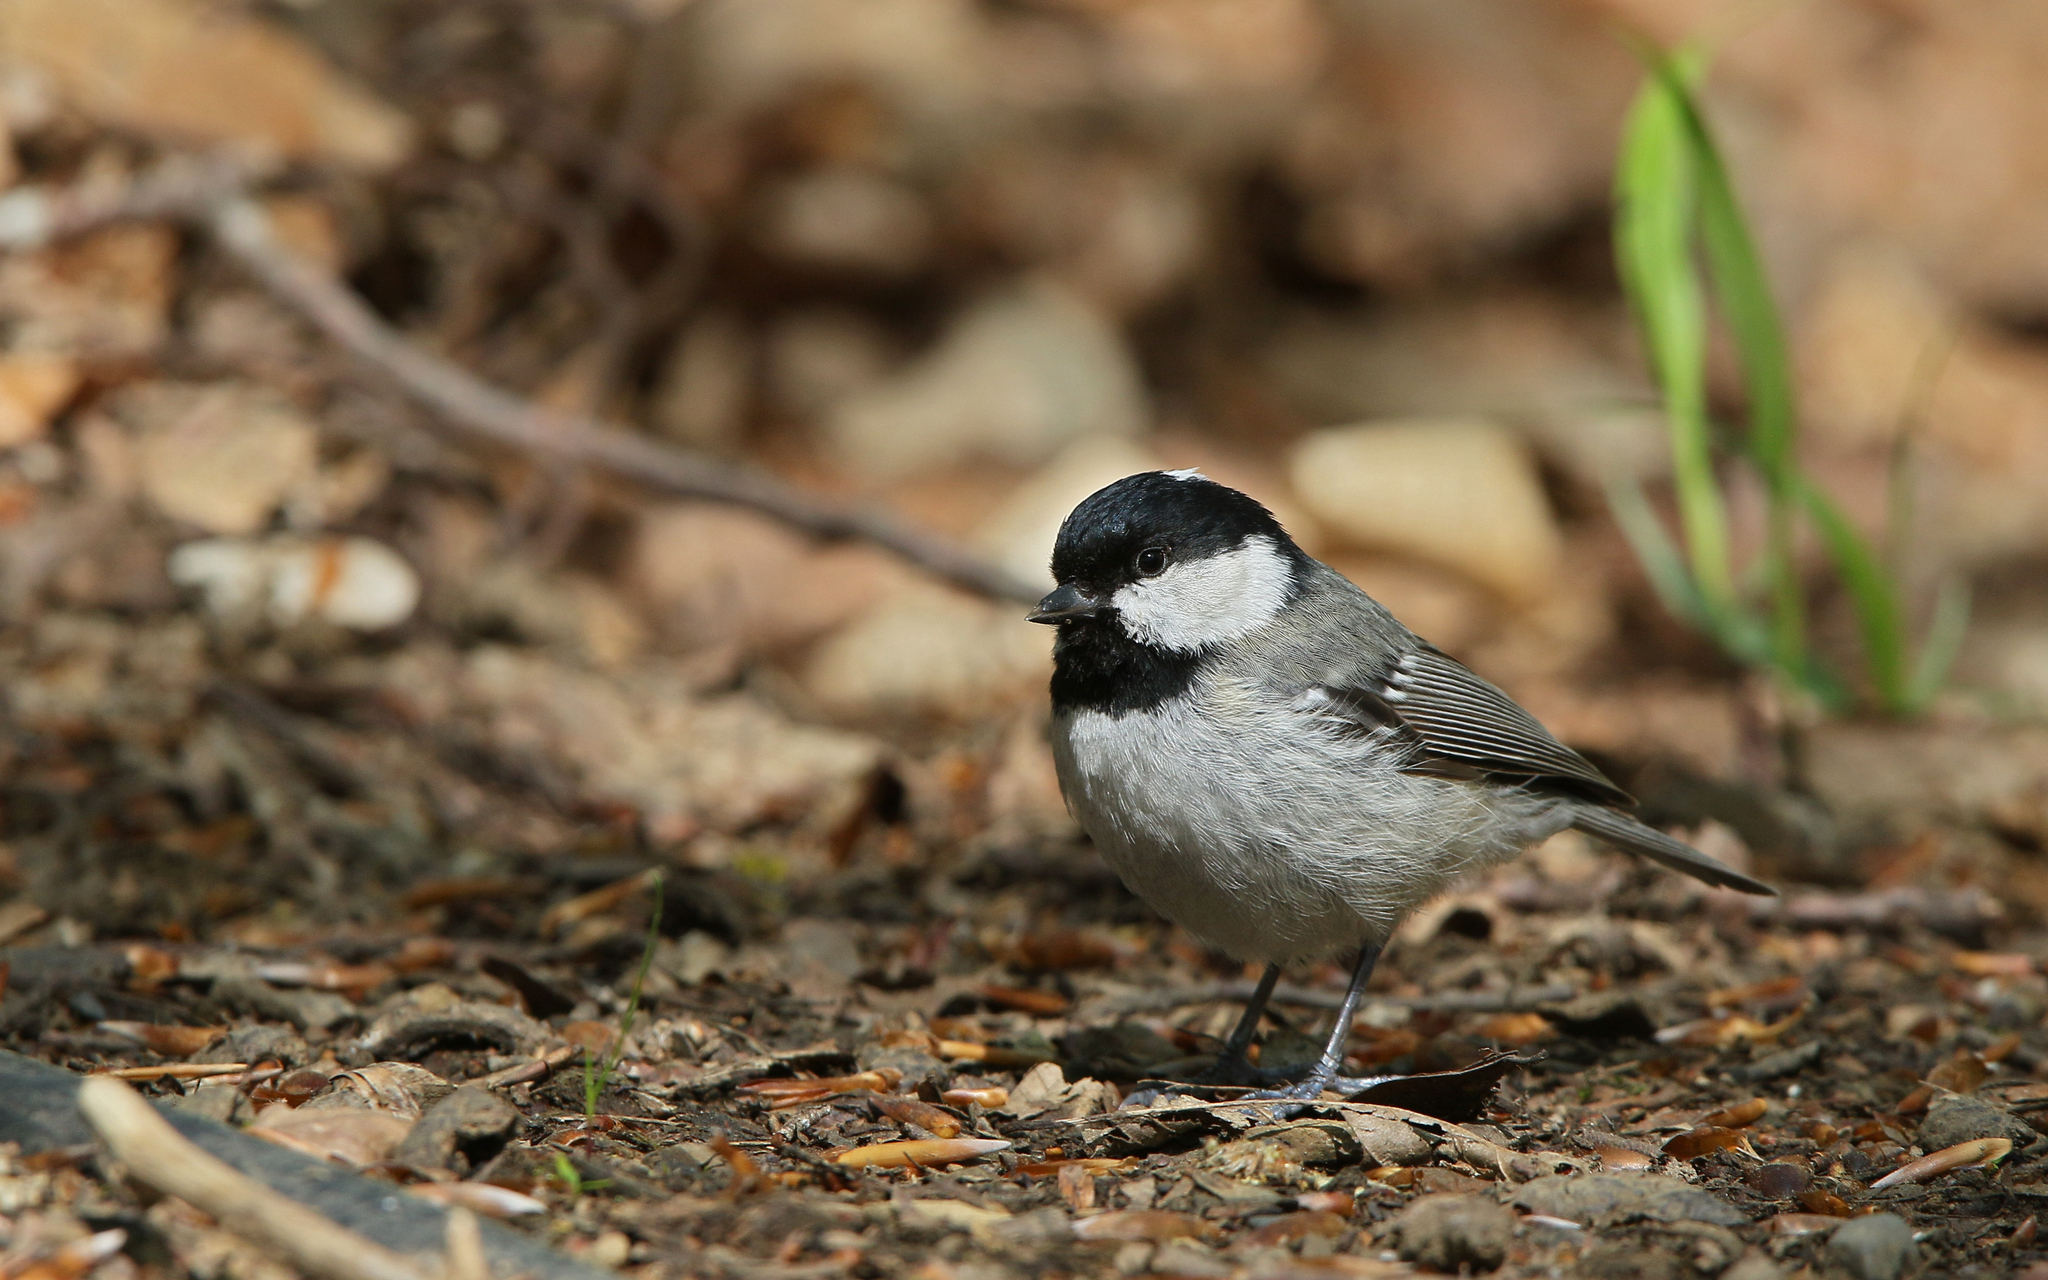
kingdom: Animalia
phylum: Chordata
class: Aves
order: Passeriformes
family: Paridae
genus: Periparus
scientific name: Periparus ater
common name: Coal tit
